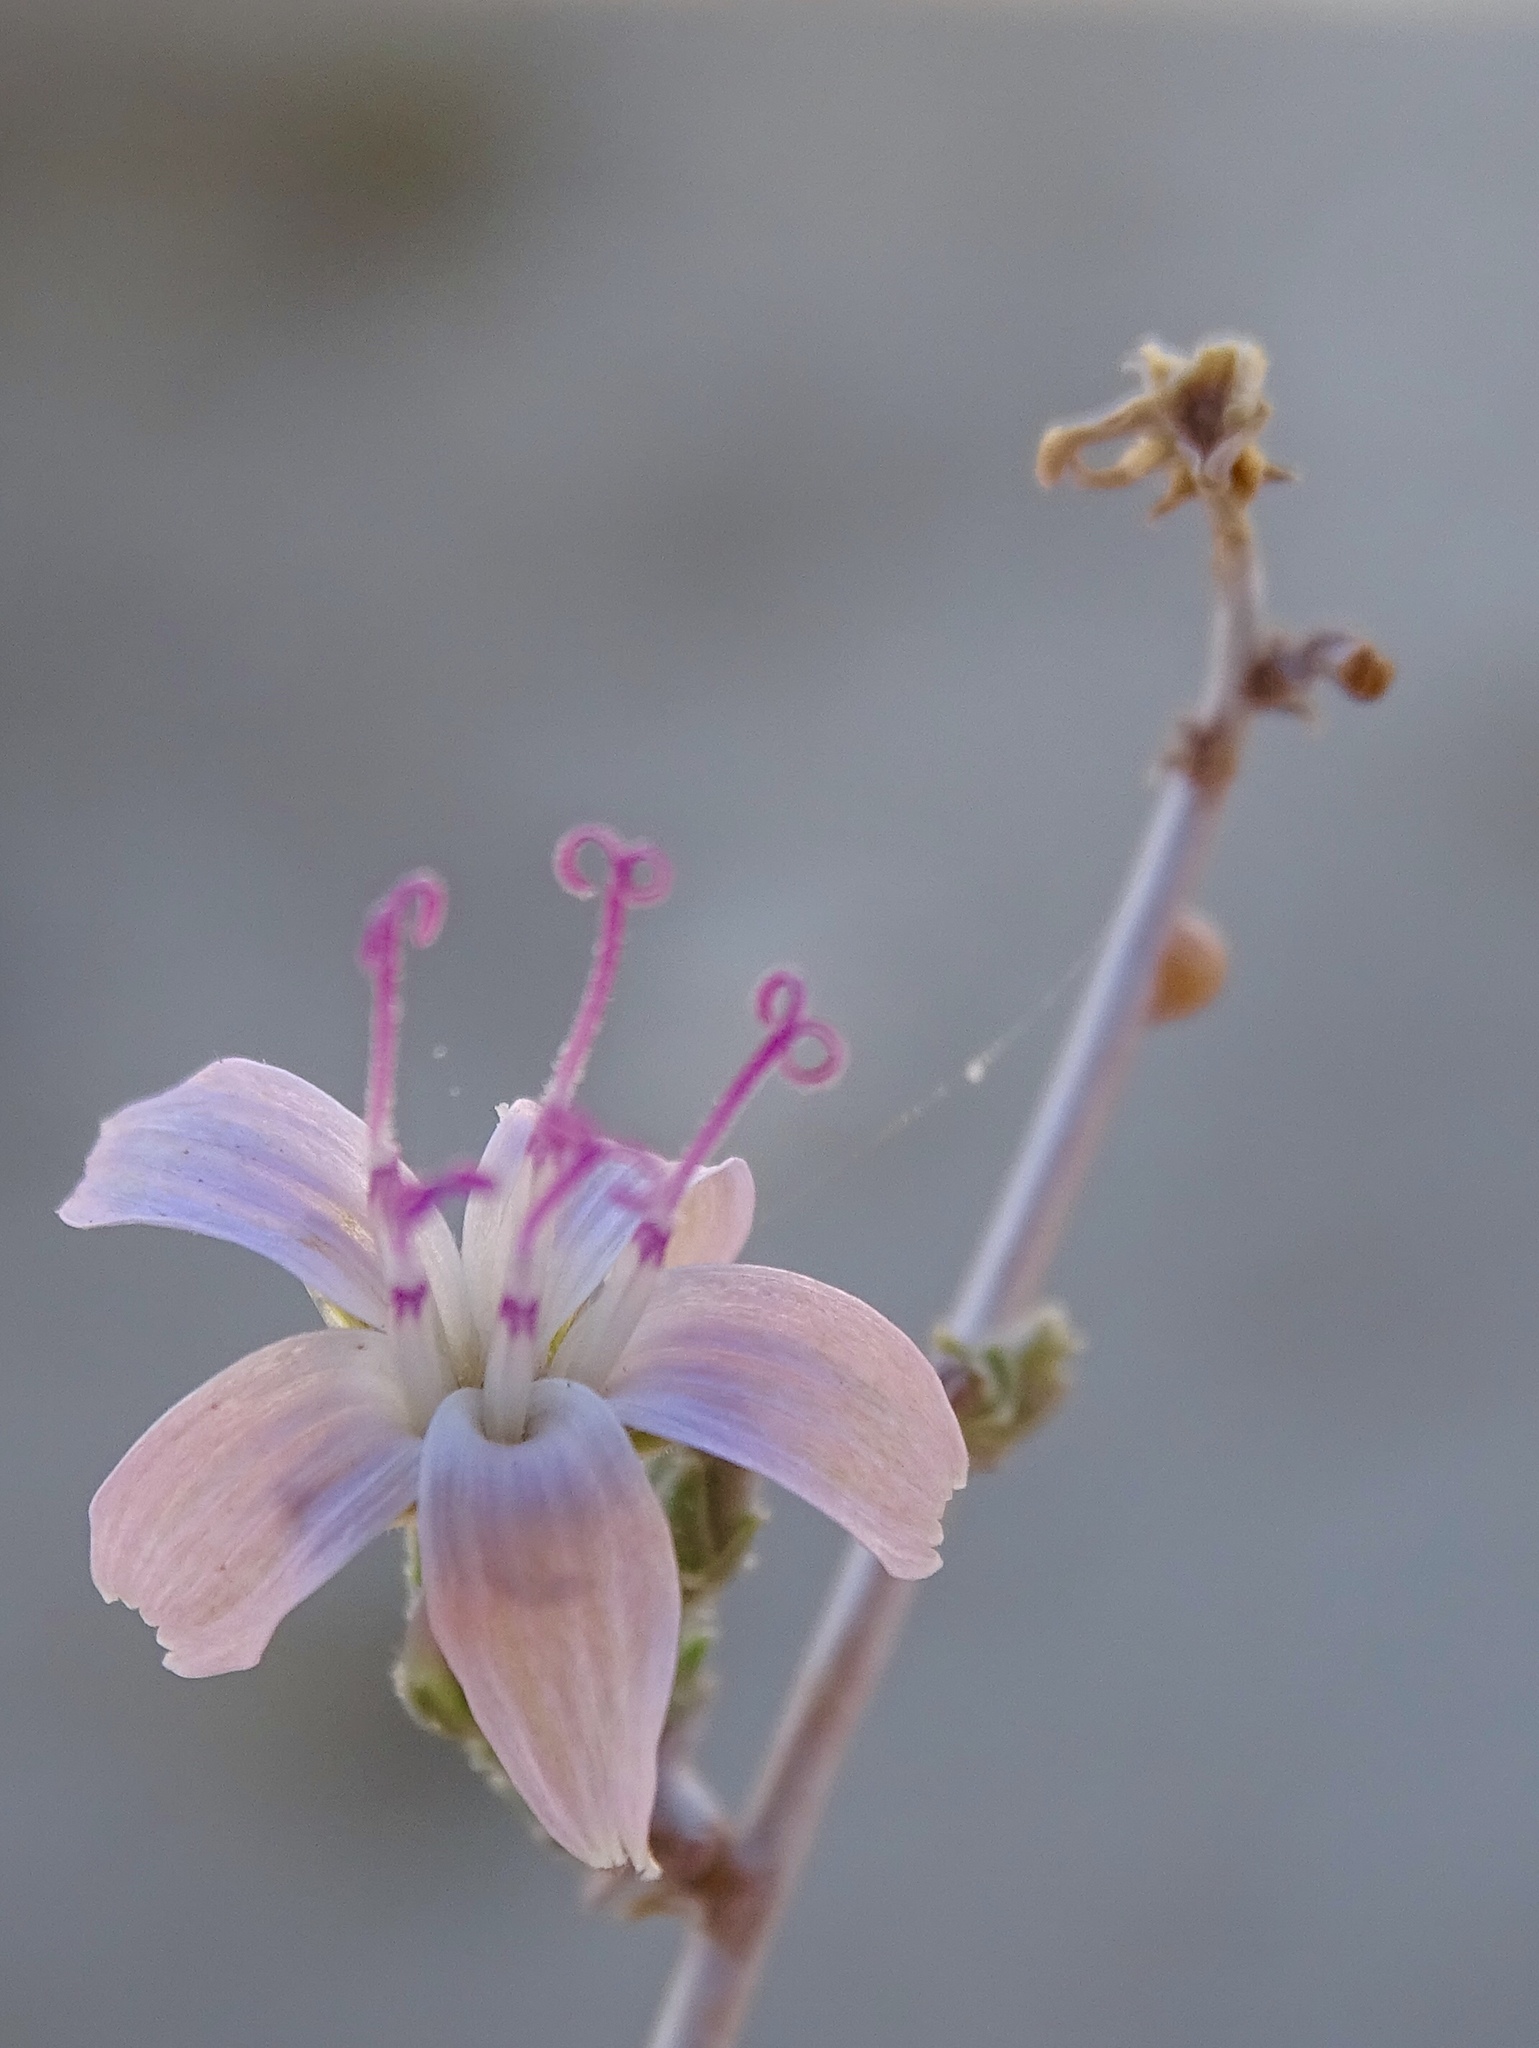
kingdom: Plantae
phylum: Tracheophyta
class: Magnoliopsida
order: Asterales
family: Asteraceae
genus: Stephanomeria
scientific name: Stephanomeria pauciflora
